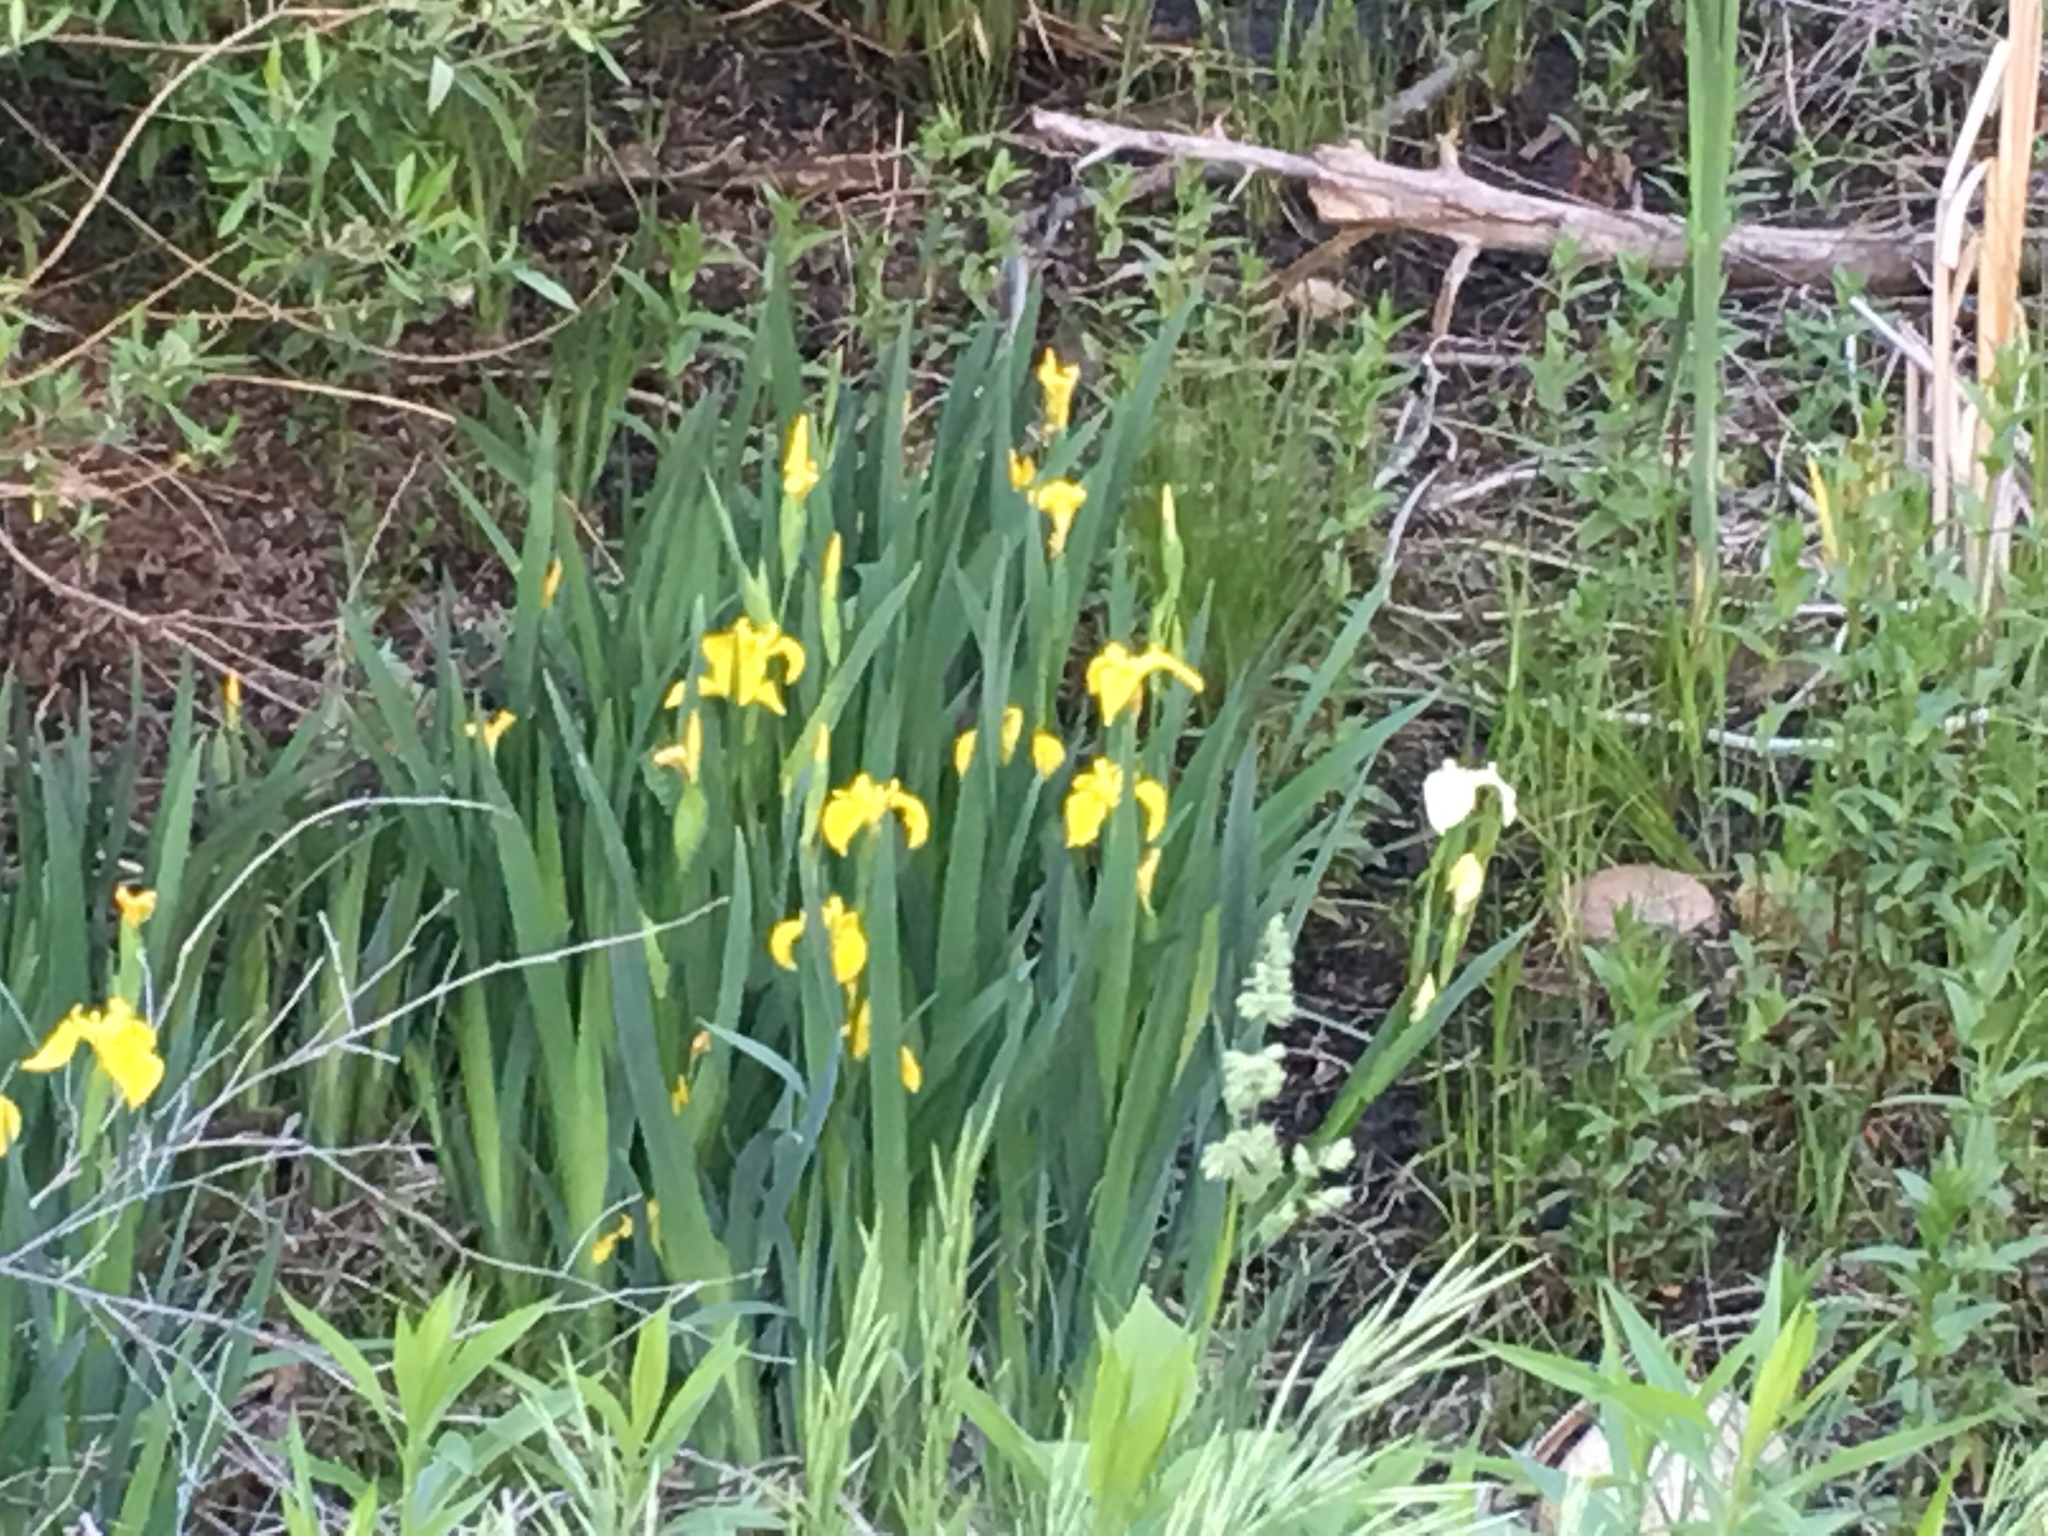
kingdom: Plantae
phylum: Tracheophyta
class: Liliopsida
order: Asparagales
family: Iridaceae
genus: Iris
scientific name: Iris pseudacorus
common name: Yellow flag
